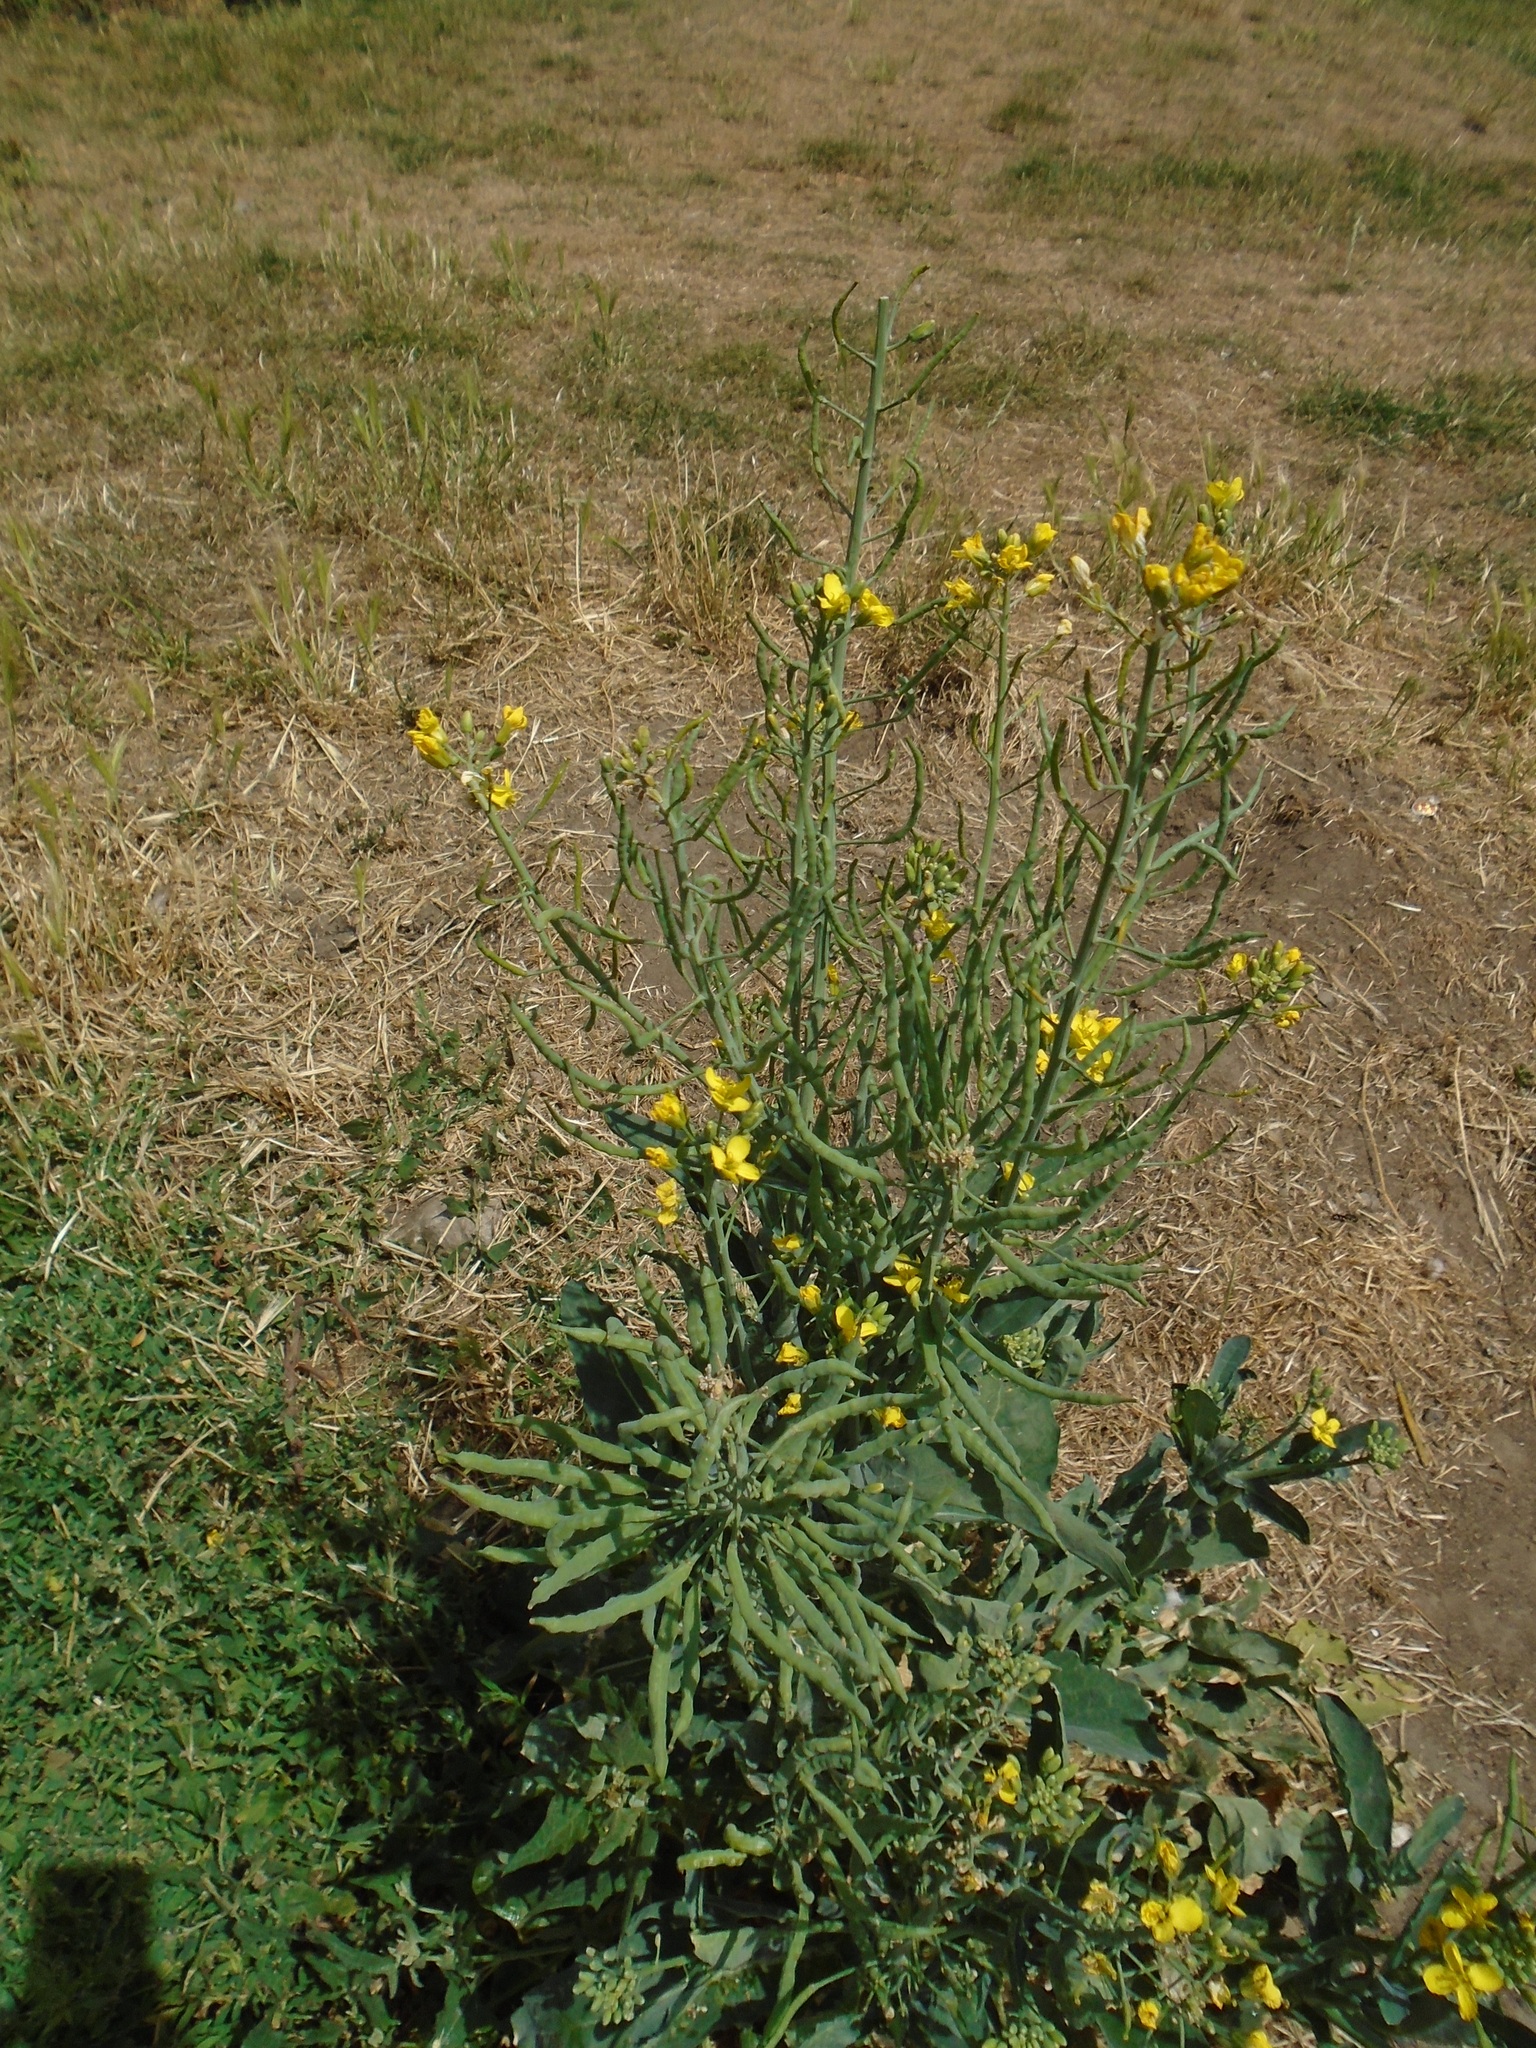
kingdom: Plantae
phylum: Tracheophyta
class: Magnoliopsida
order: Brassicales
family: Brassicaceae
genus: Brassica
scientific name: Brassica napus
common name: Rape
